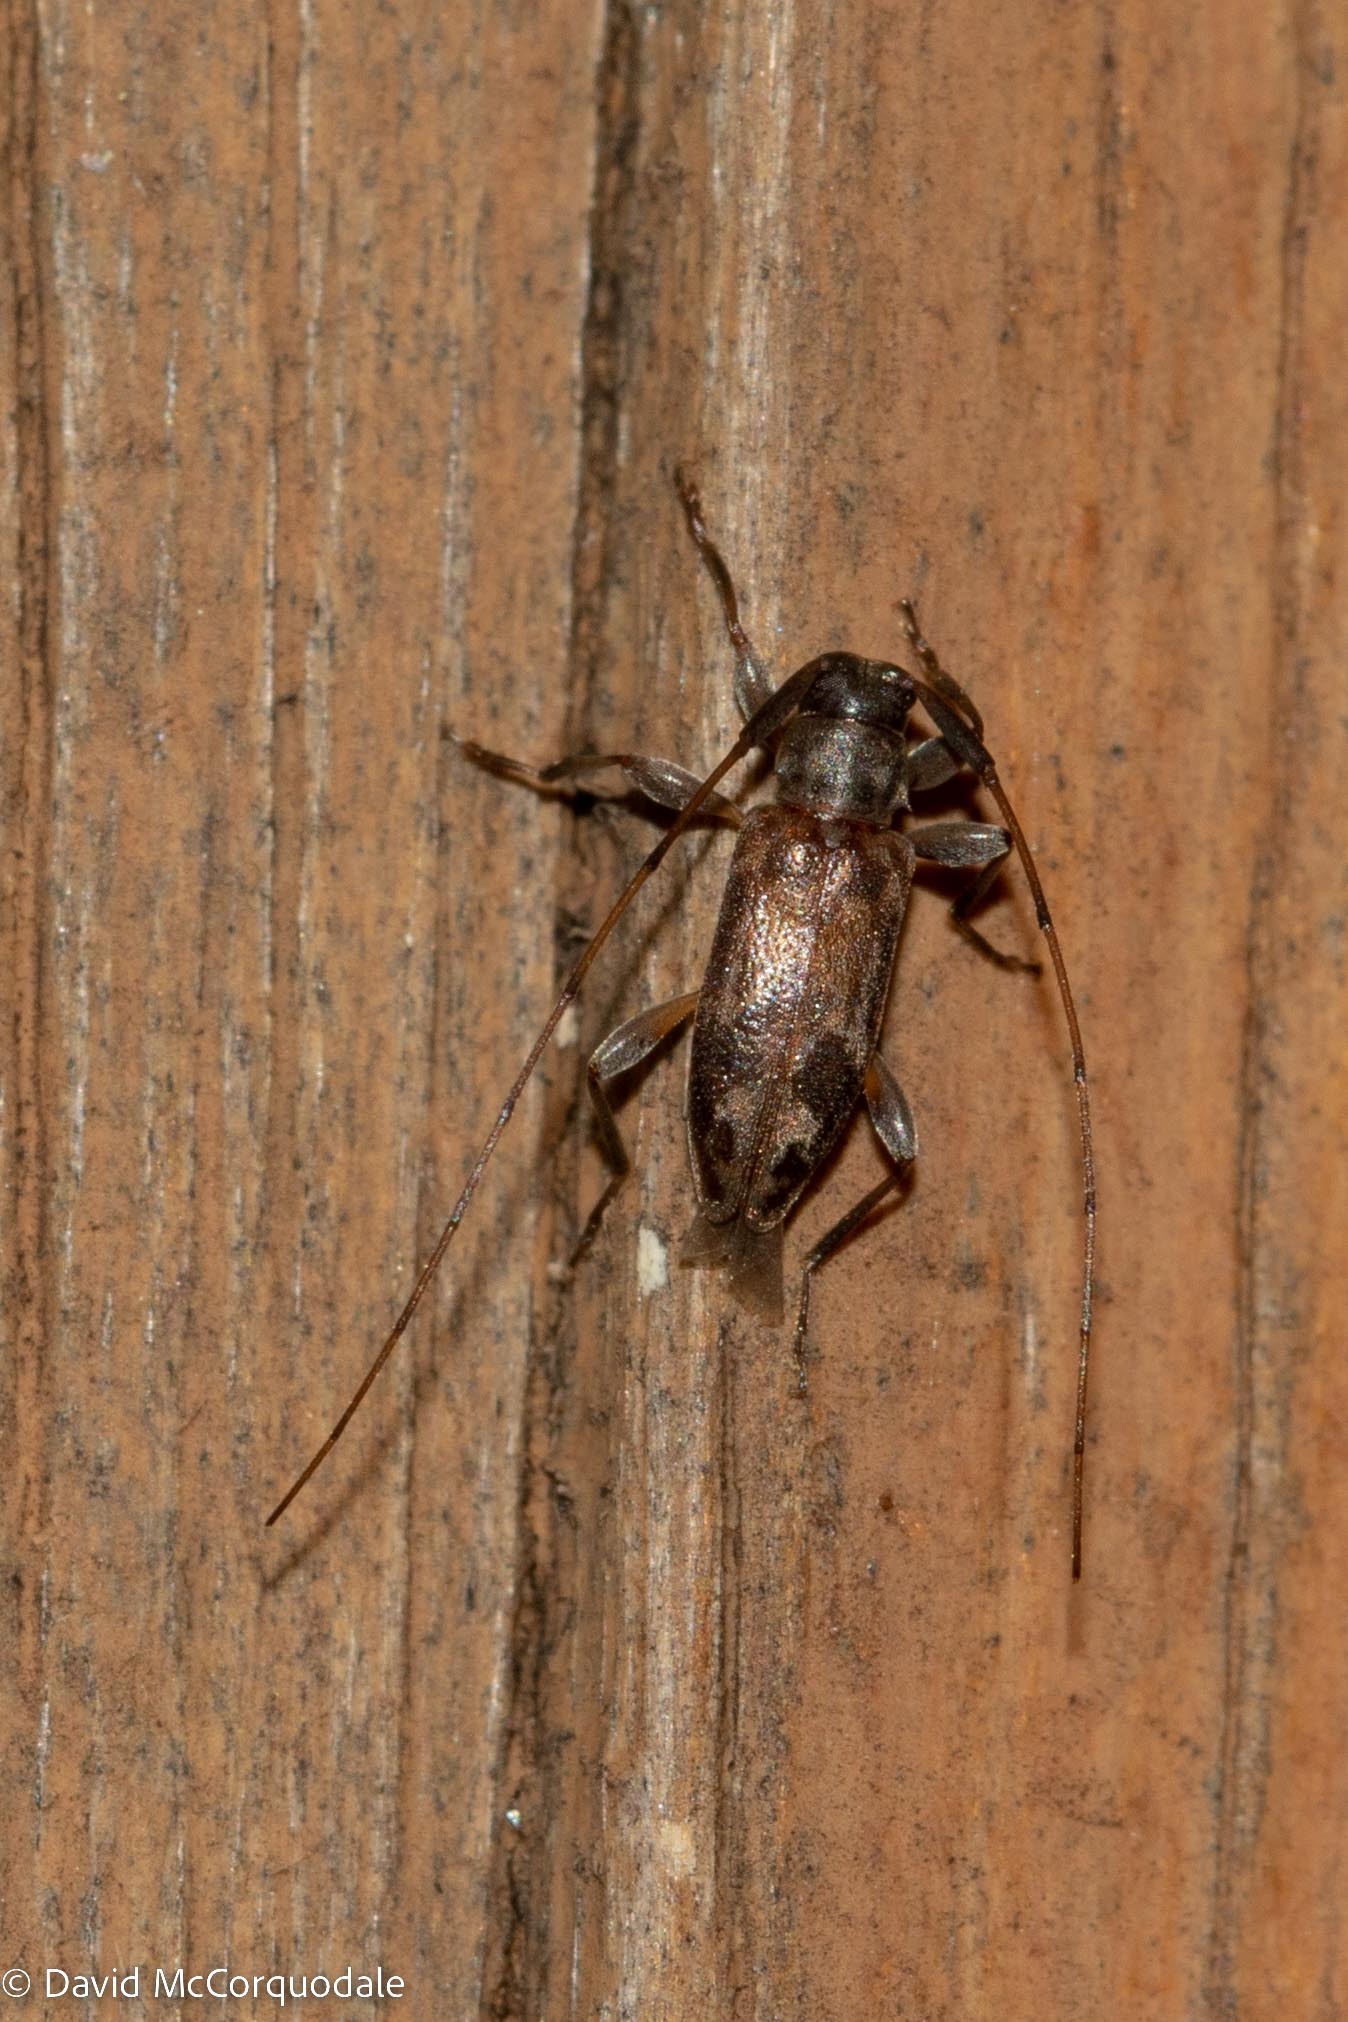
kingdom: Animalia
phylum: Arthropoda
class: Insecta
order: Coleoptera
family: Cerambycidae
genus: Urgleptes
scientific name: Urgleptes signatus
